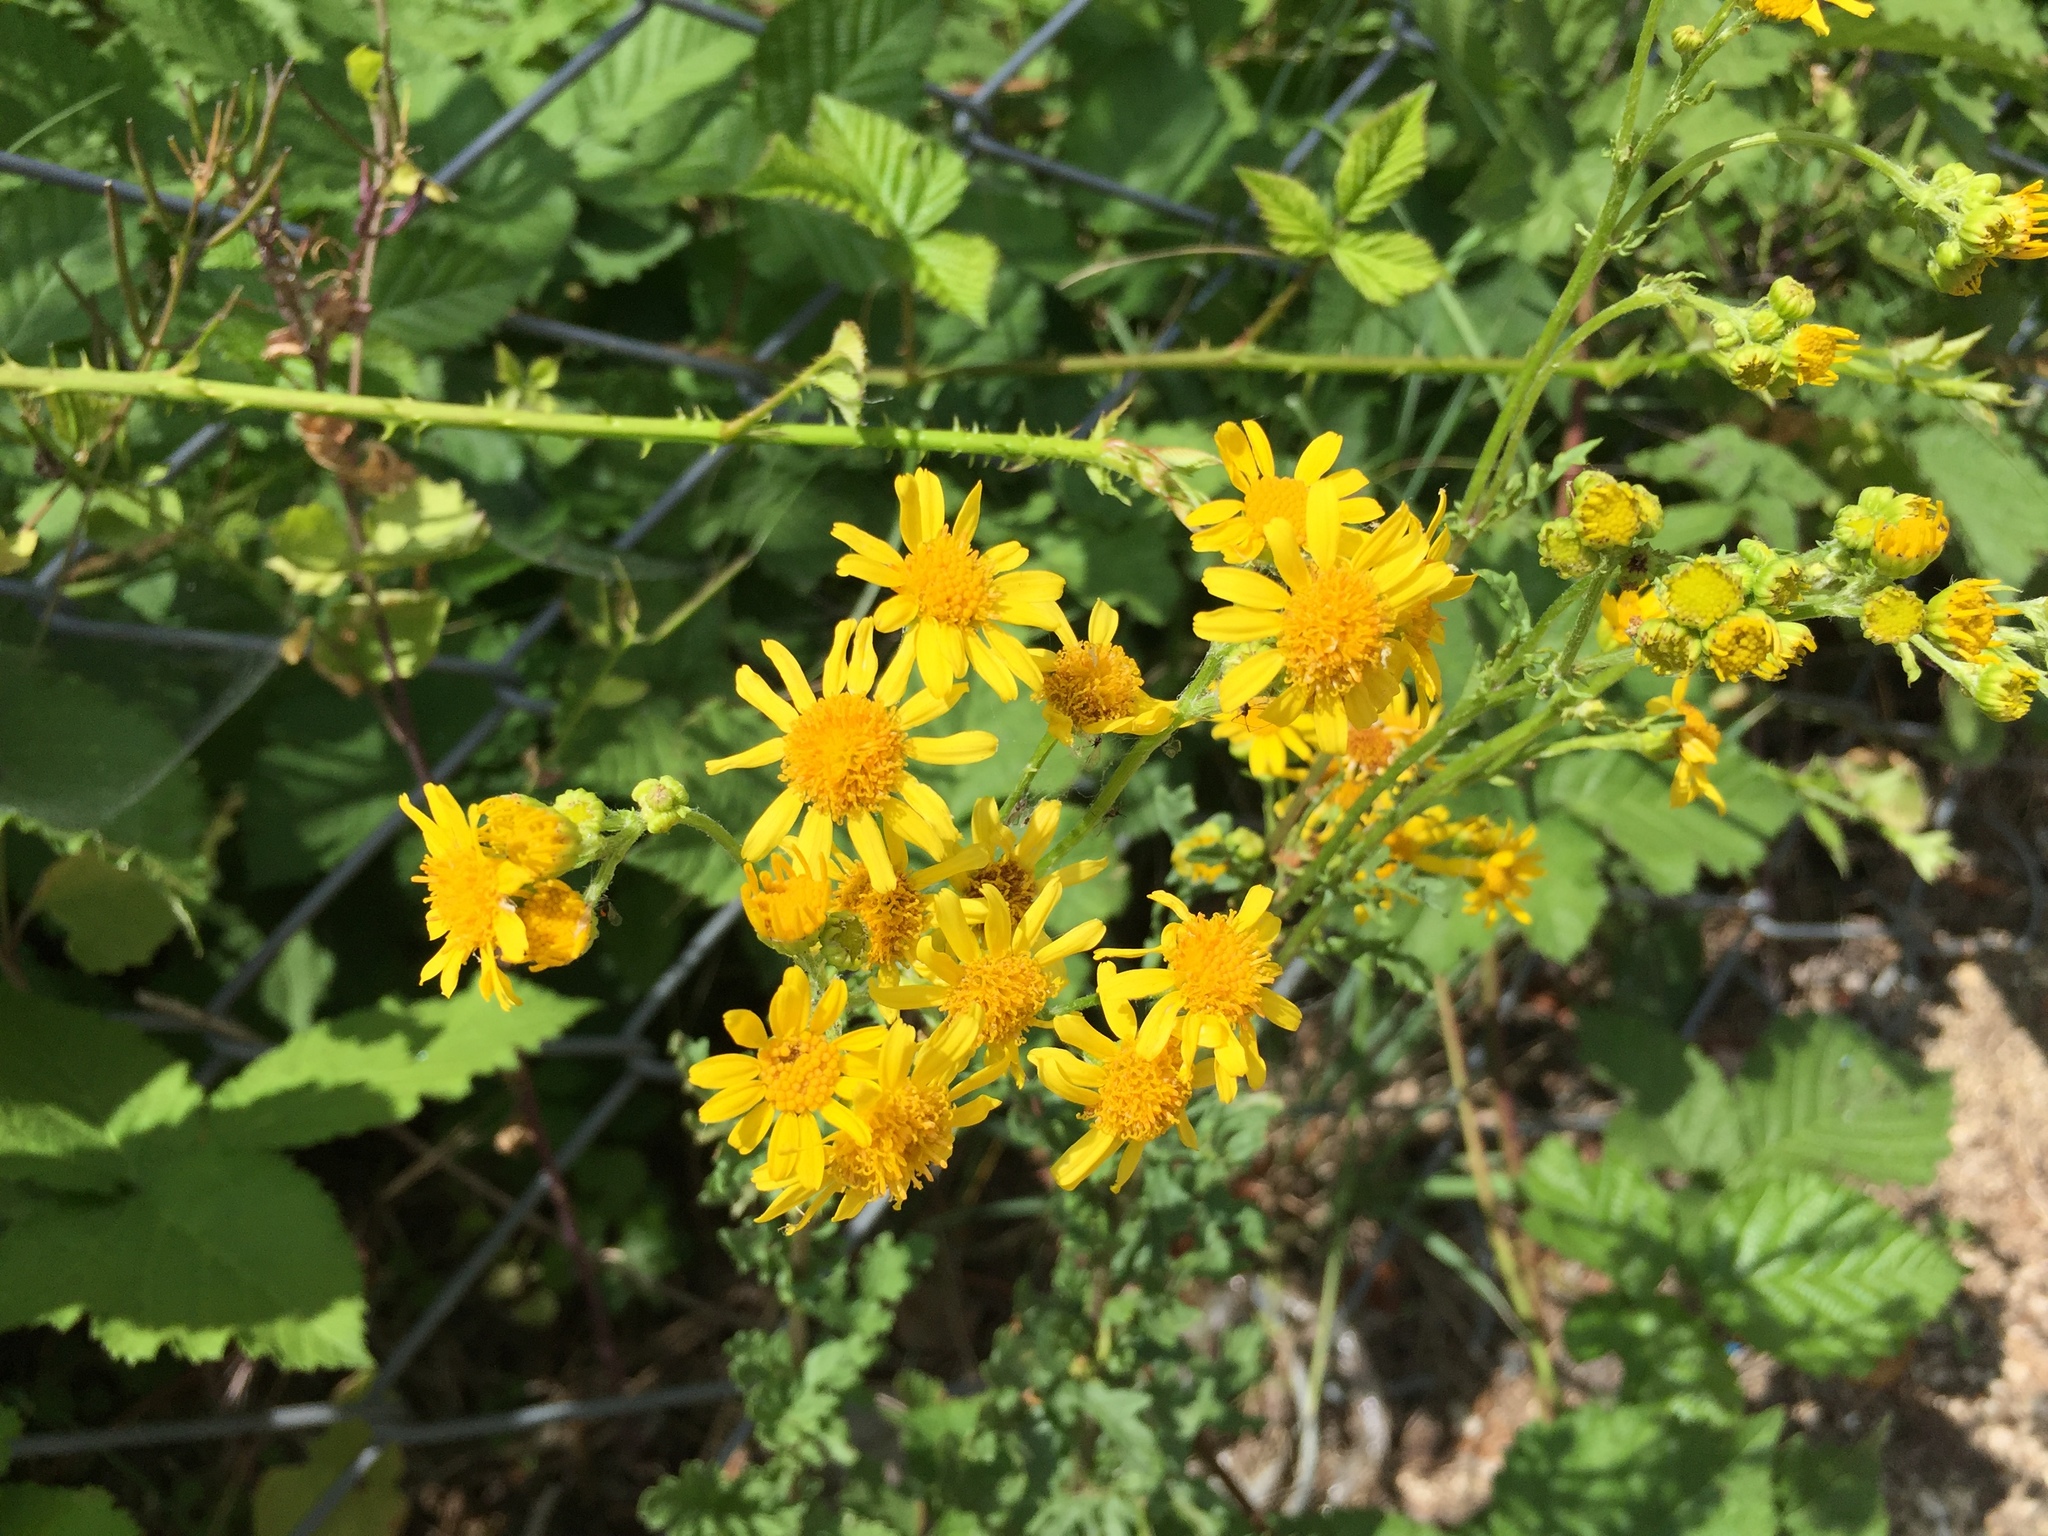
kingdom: Plantae
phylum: Tracheophyta
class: Magnoliopsida
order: Asterales
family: Asteraceae
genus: Jacobaea
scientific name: Jacobaea vulgaris
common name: Stinking willie
